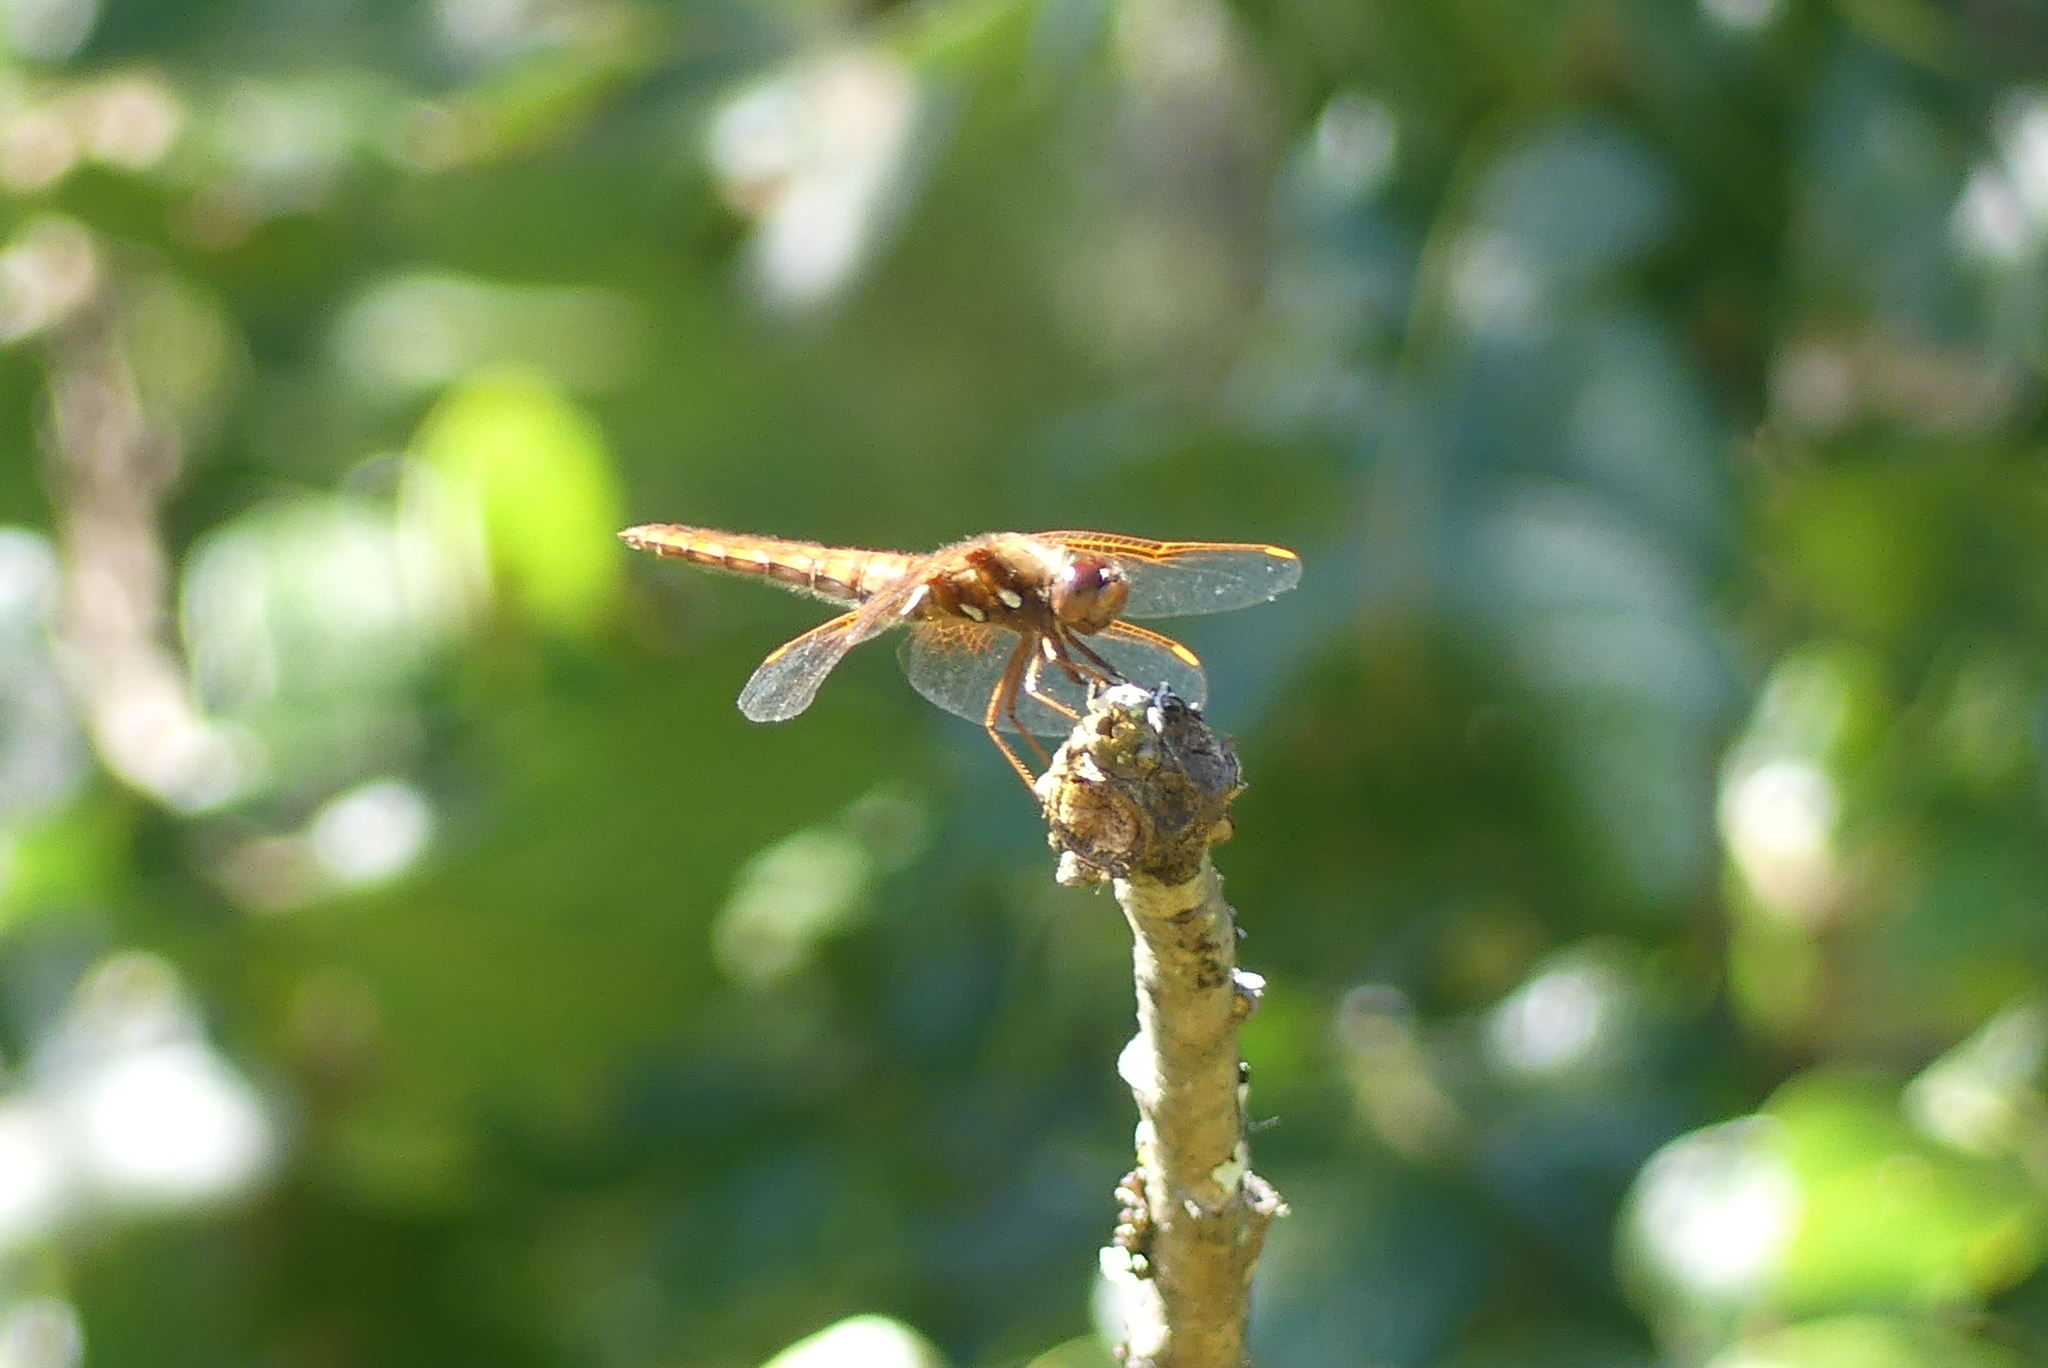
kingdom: Animalia
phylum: Arthropoda
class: Insecta
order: Odonata
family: Libellulidae
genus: Sympetrum
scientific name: Sympetrum illotum
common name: Cardinal meadowhawk
